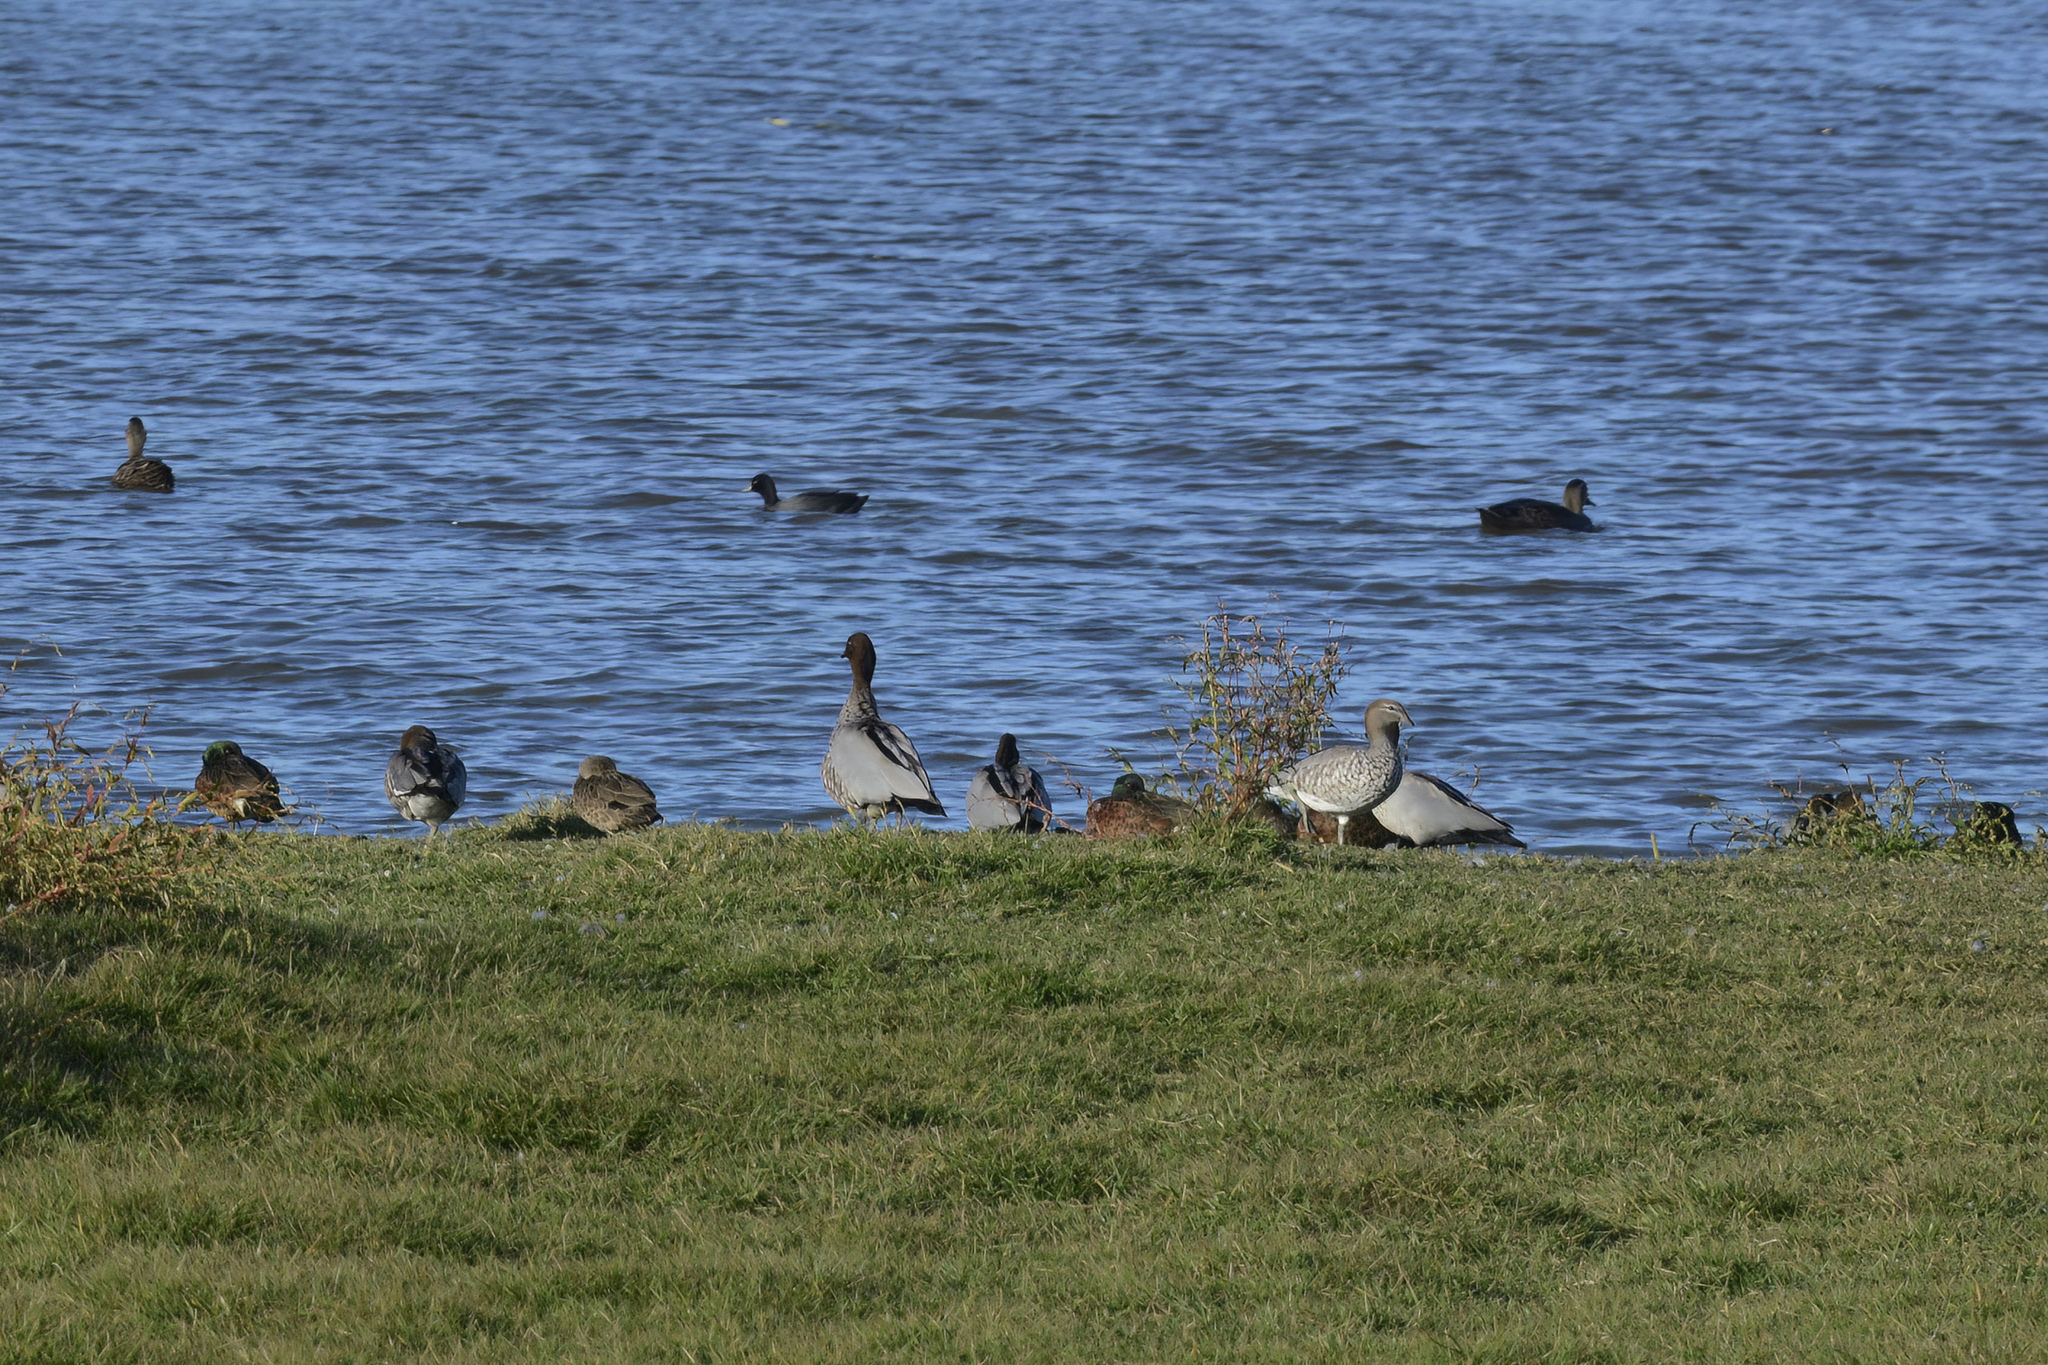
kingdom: Animalia
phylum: Chordata
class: Aves
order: Anseriformes
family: Anatidae
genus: Anas
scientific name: Anas castanea
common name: Chestnut teal
